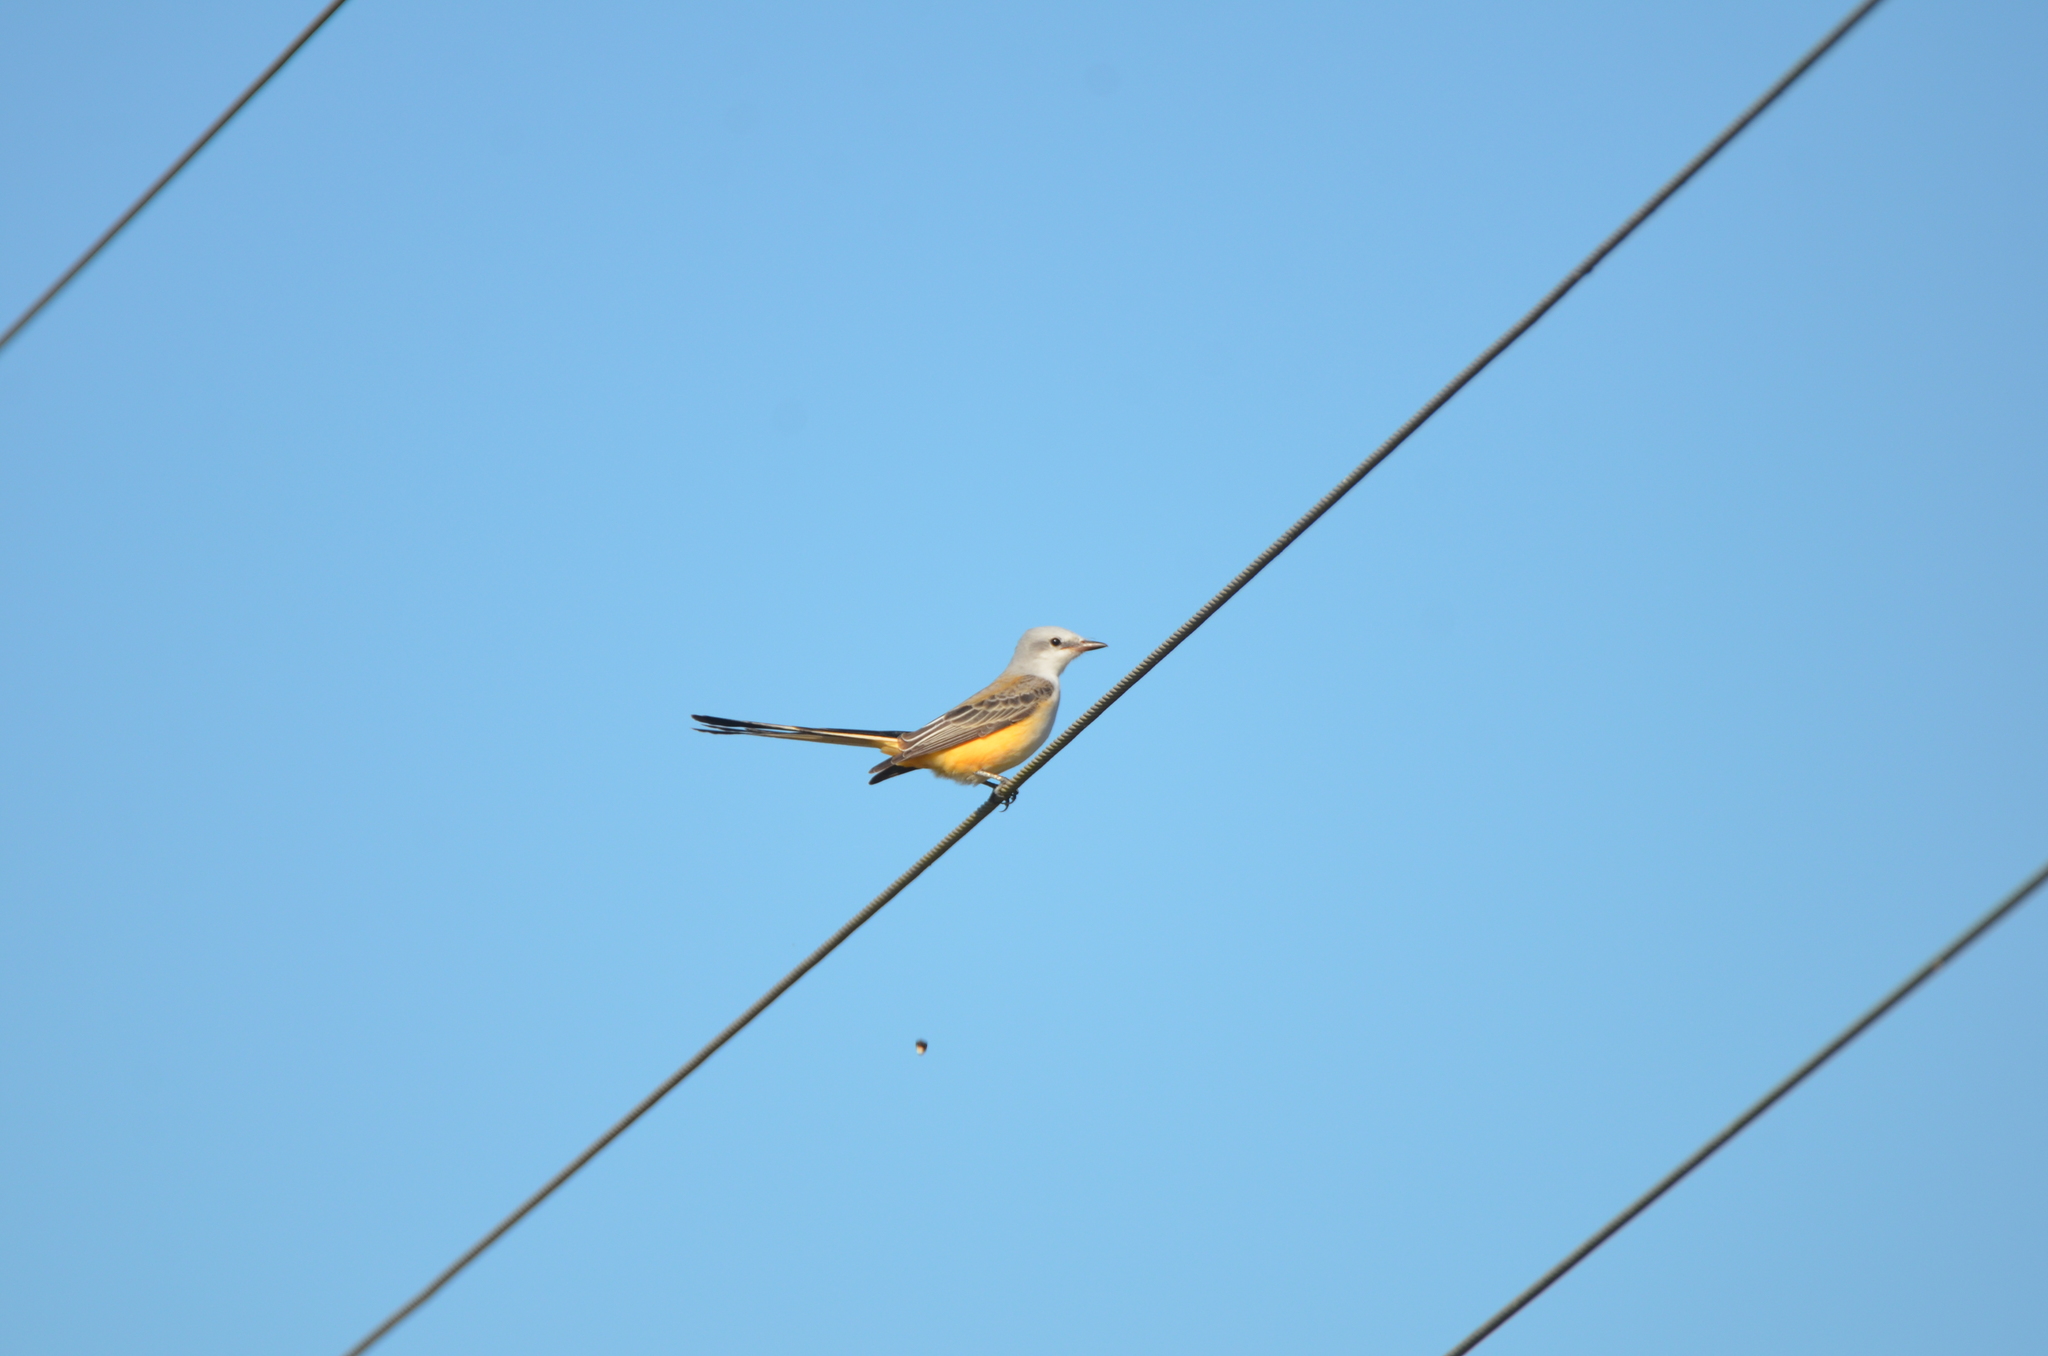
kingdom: Animalia
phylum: Chordata
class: Aves
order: Passeriformes
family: Tyrannidae
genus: Tyrannus
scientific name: Tyrannus forficatus
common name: Scissor-tailed flycatcher
